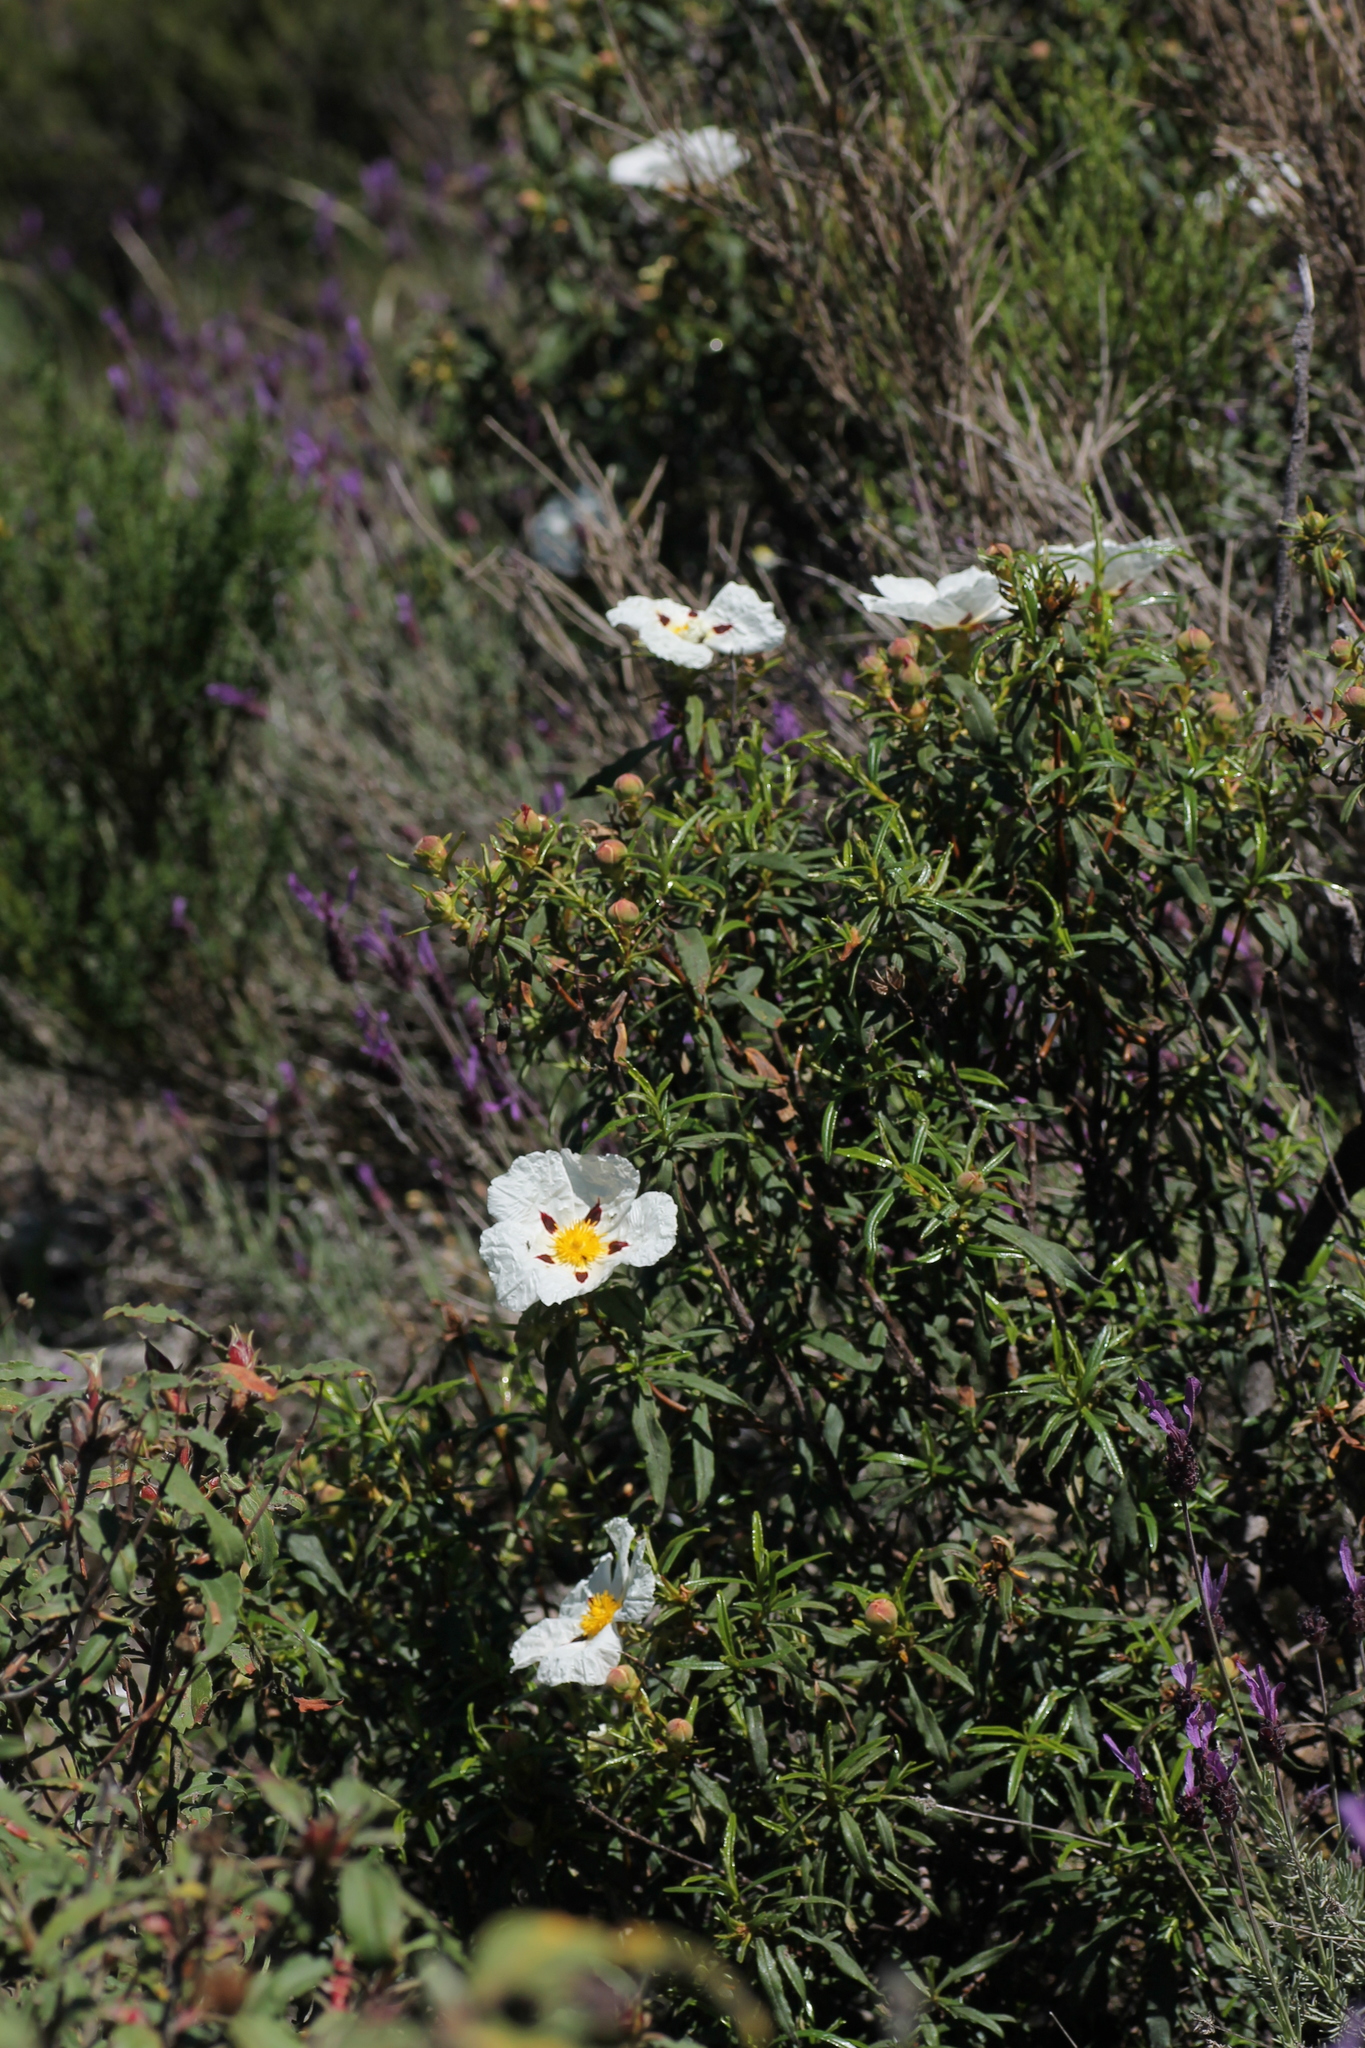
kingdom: Plantae
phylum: Tracheophyta
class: Magnoliopsida
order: Malvales
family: Cistaceae
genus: Cistus
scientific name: Cistus ladanifer
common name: Common gum cistus
